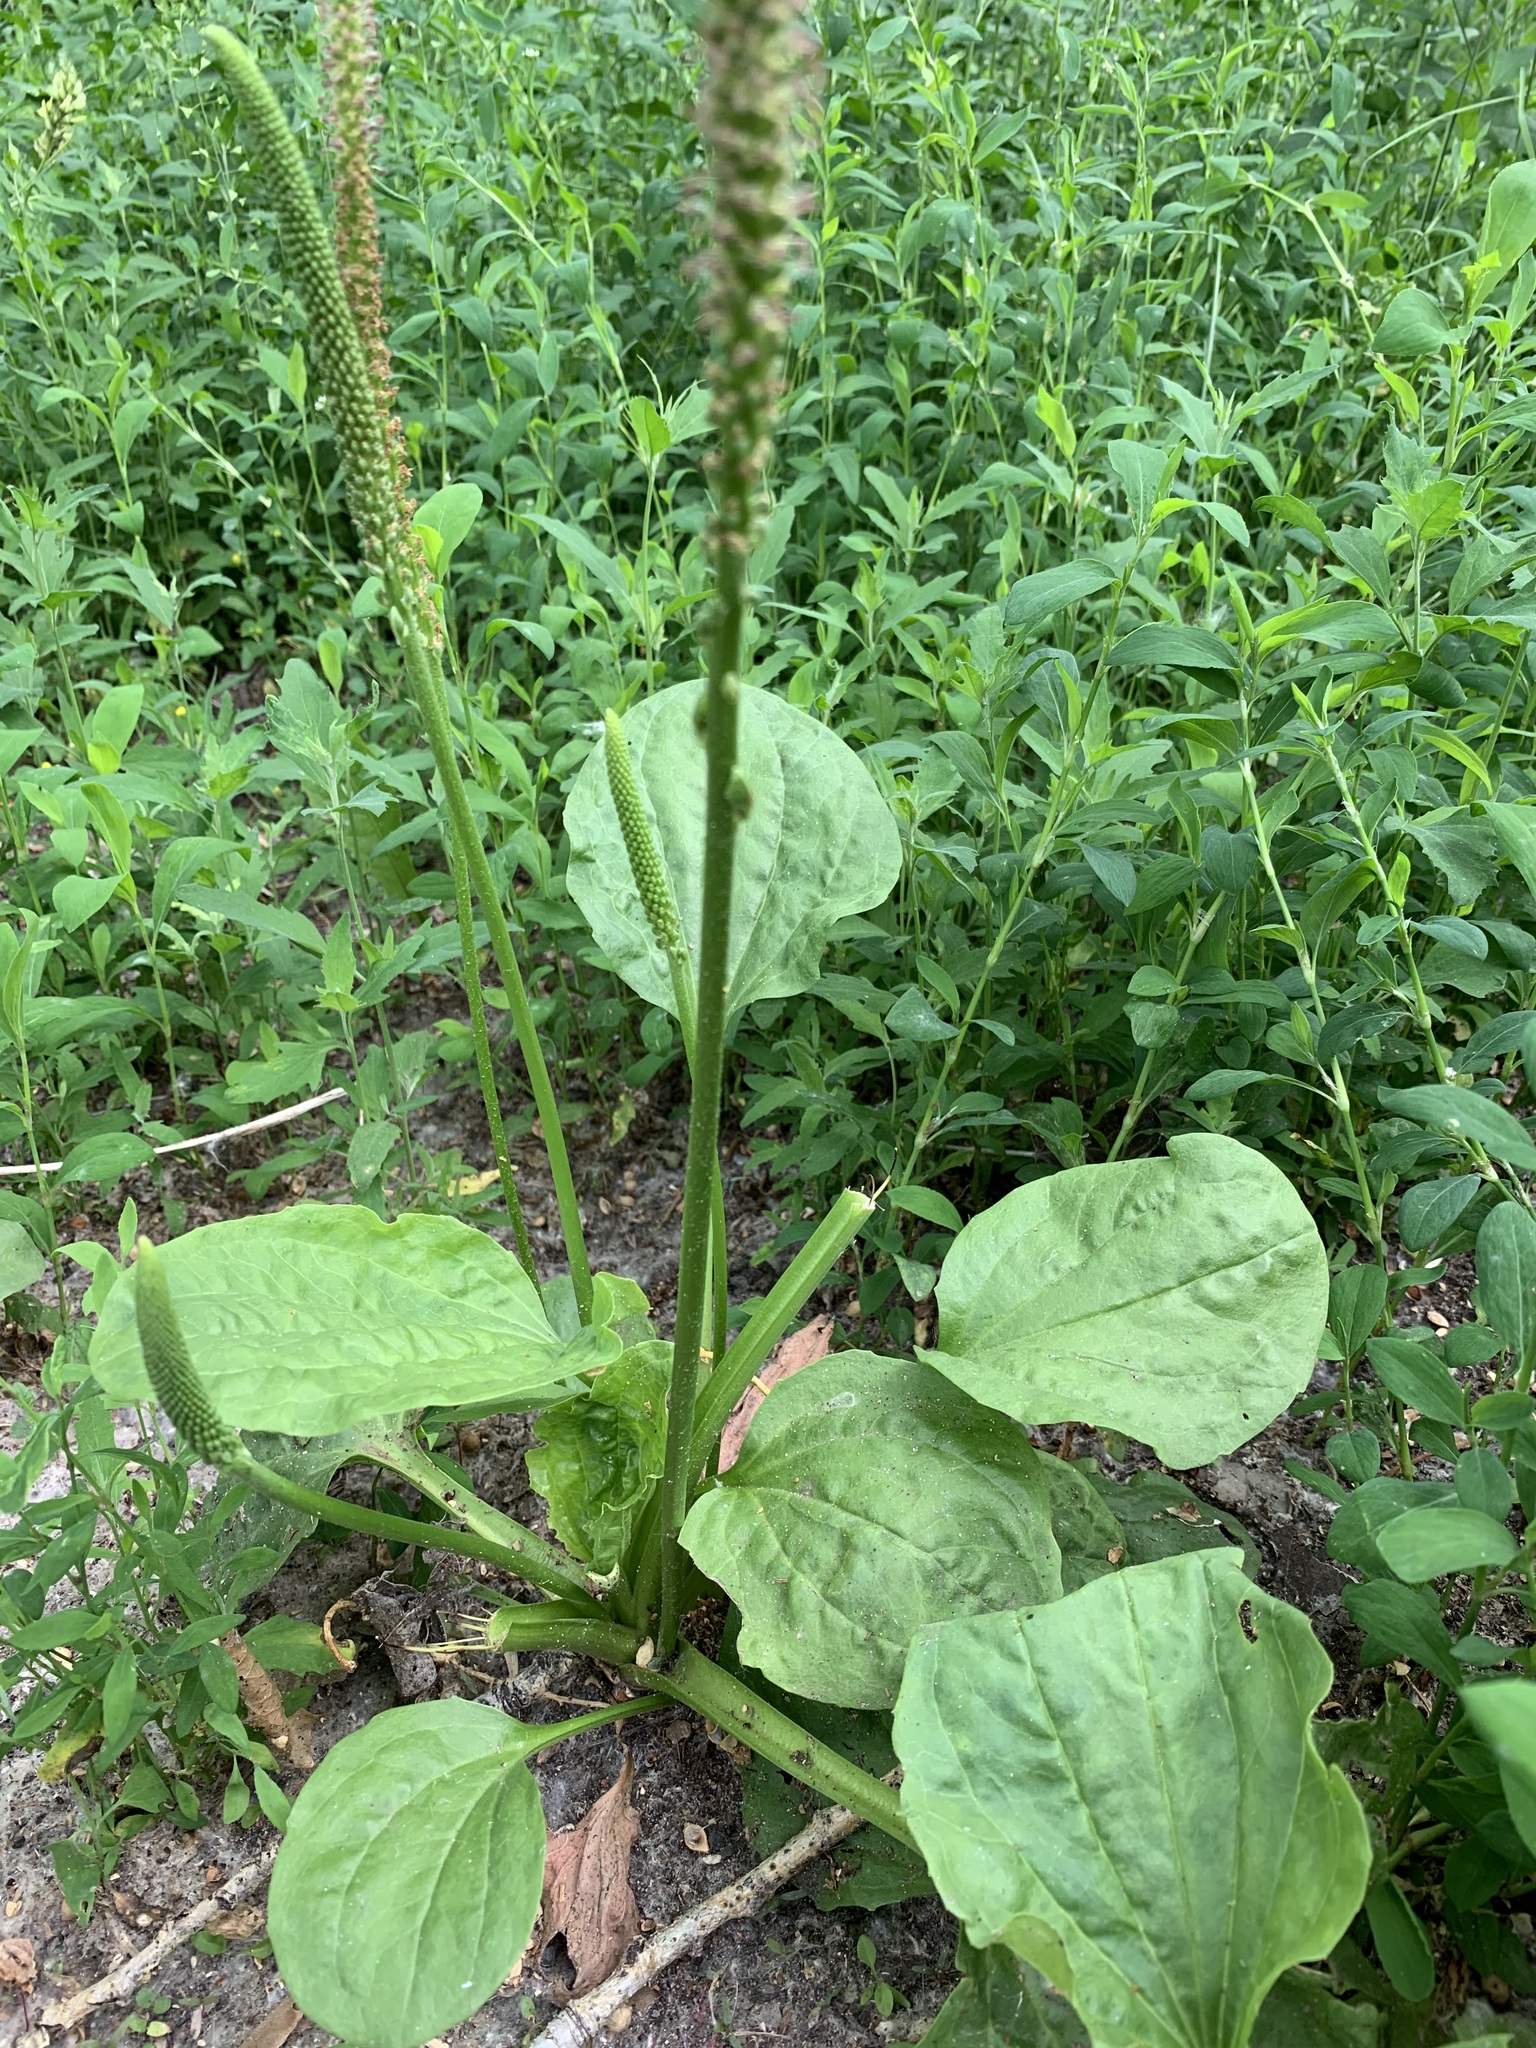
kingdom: Plantae
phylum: Tracheophyta
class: Magnoliopsida
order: Lamiales
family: Plantaginaceae
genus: Plantago
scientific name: Plantago major
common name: Common plantain
